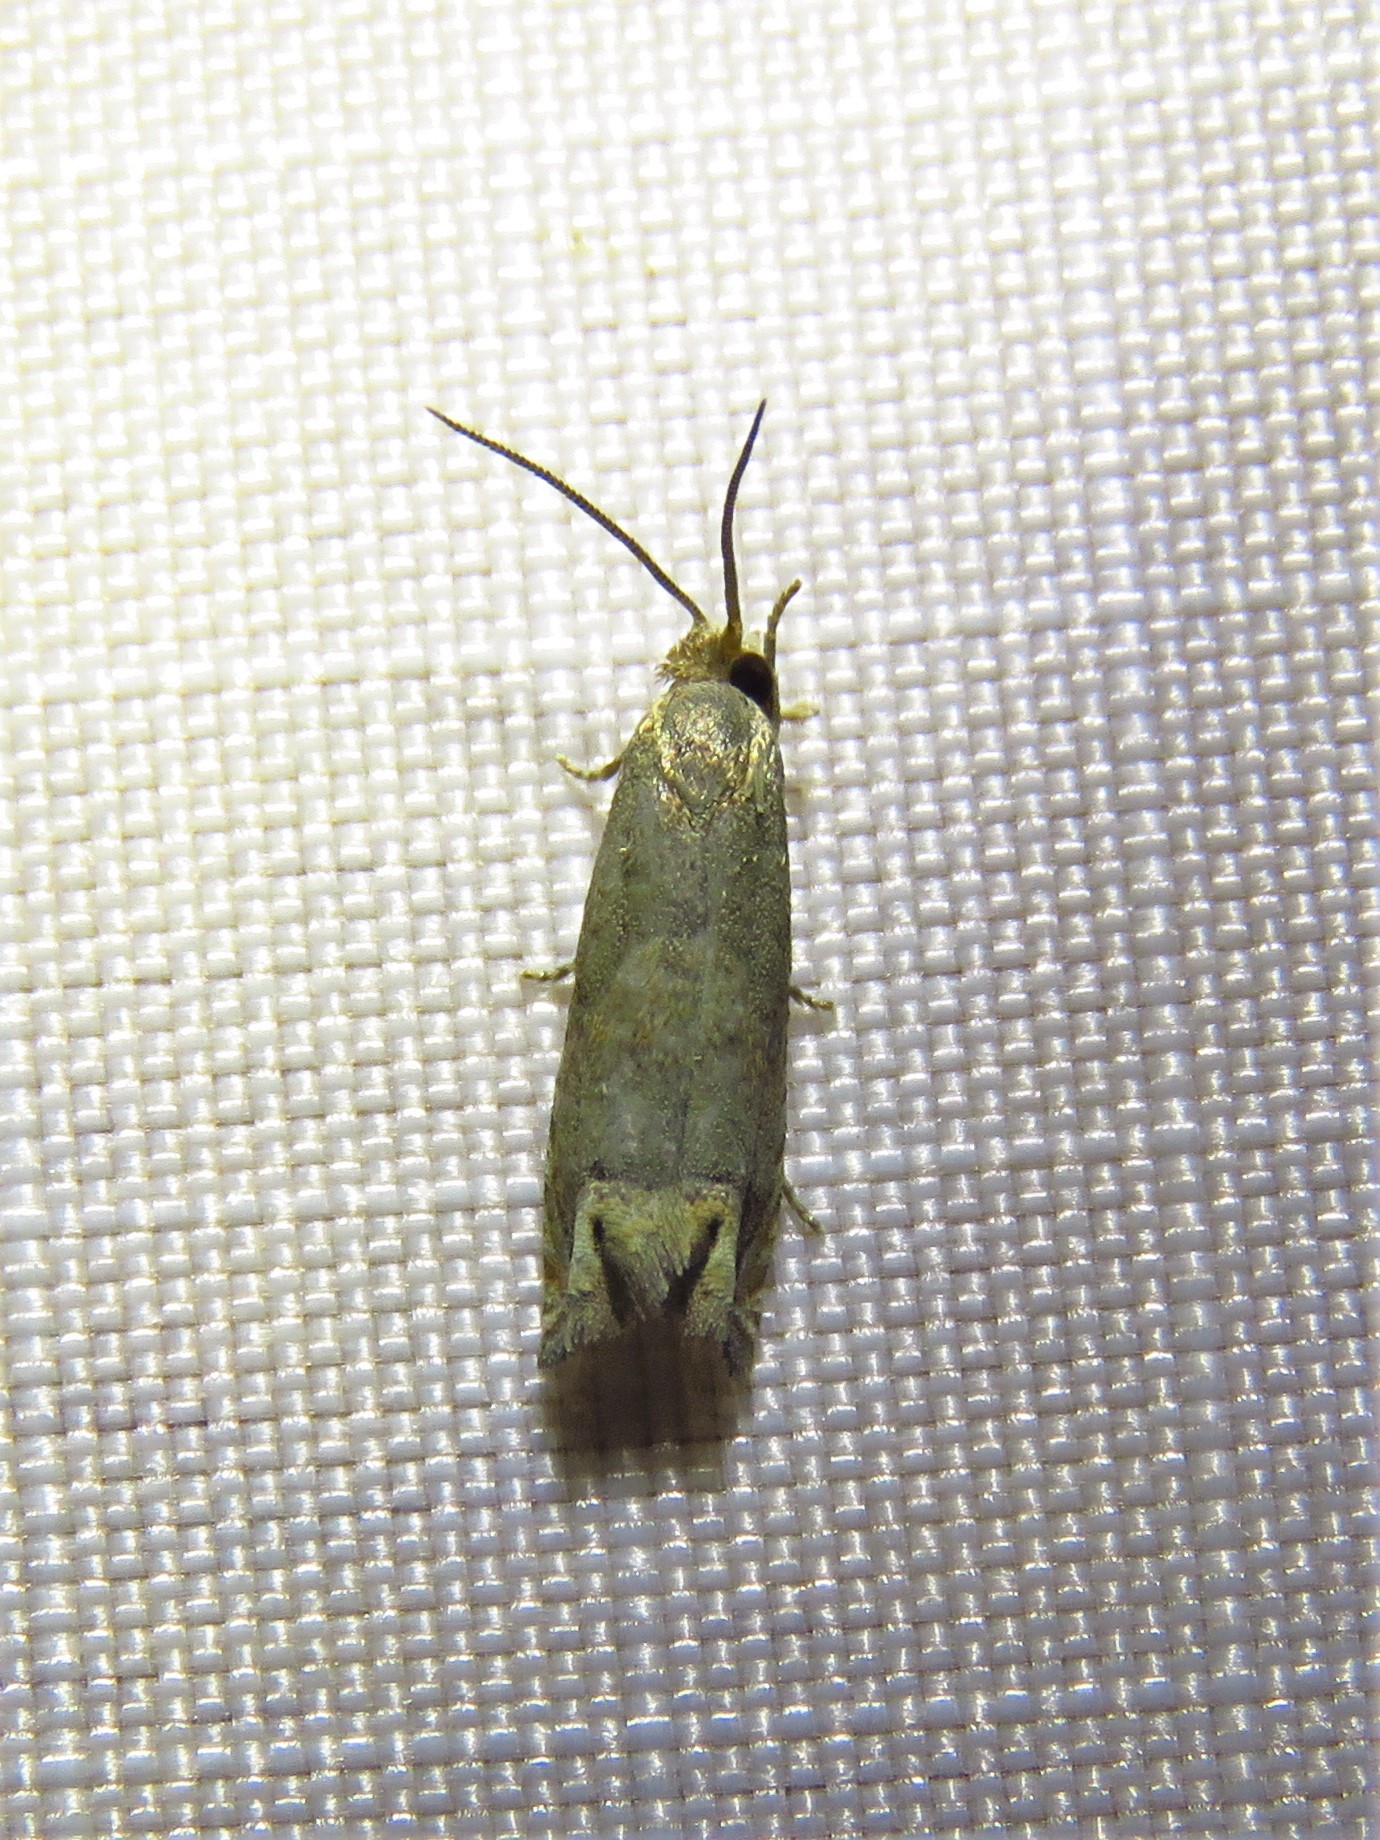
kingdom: Animalia
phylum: Arthropoda
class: Insecta
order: Lepidoptera
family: Tortricidae
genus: Epiblema
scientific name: Epiblema strenuana
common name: Ragweed borer moth
